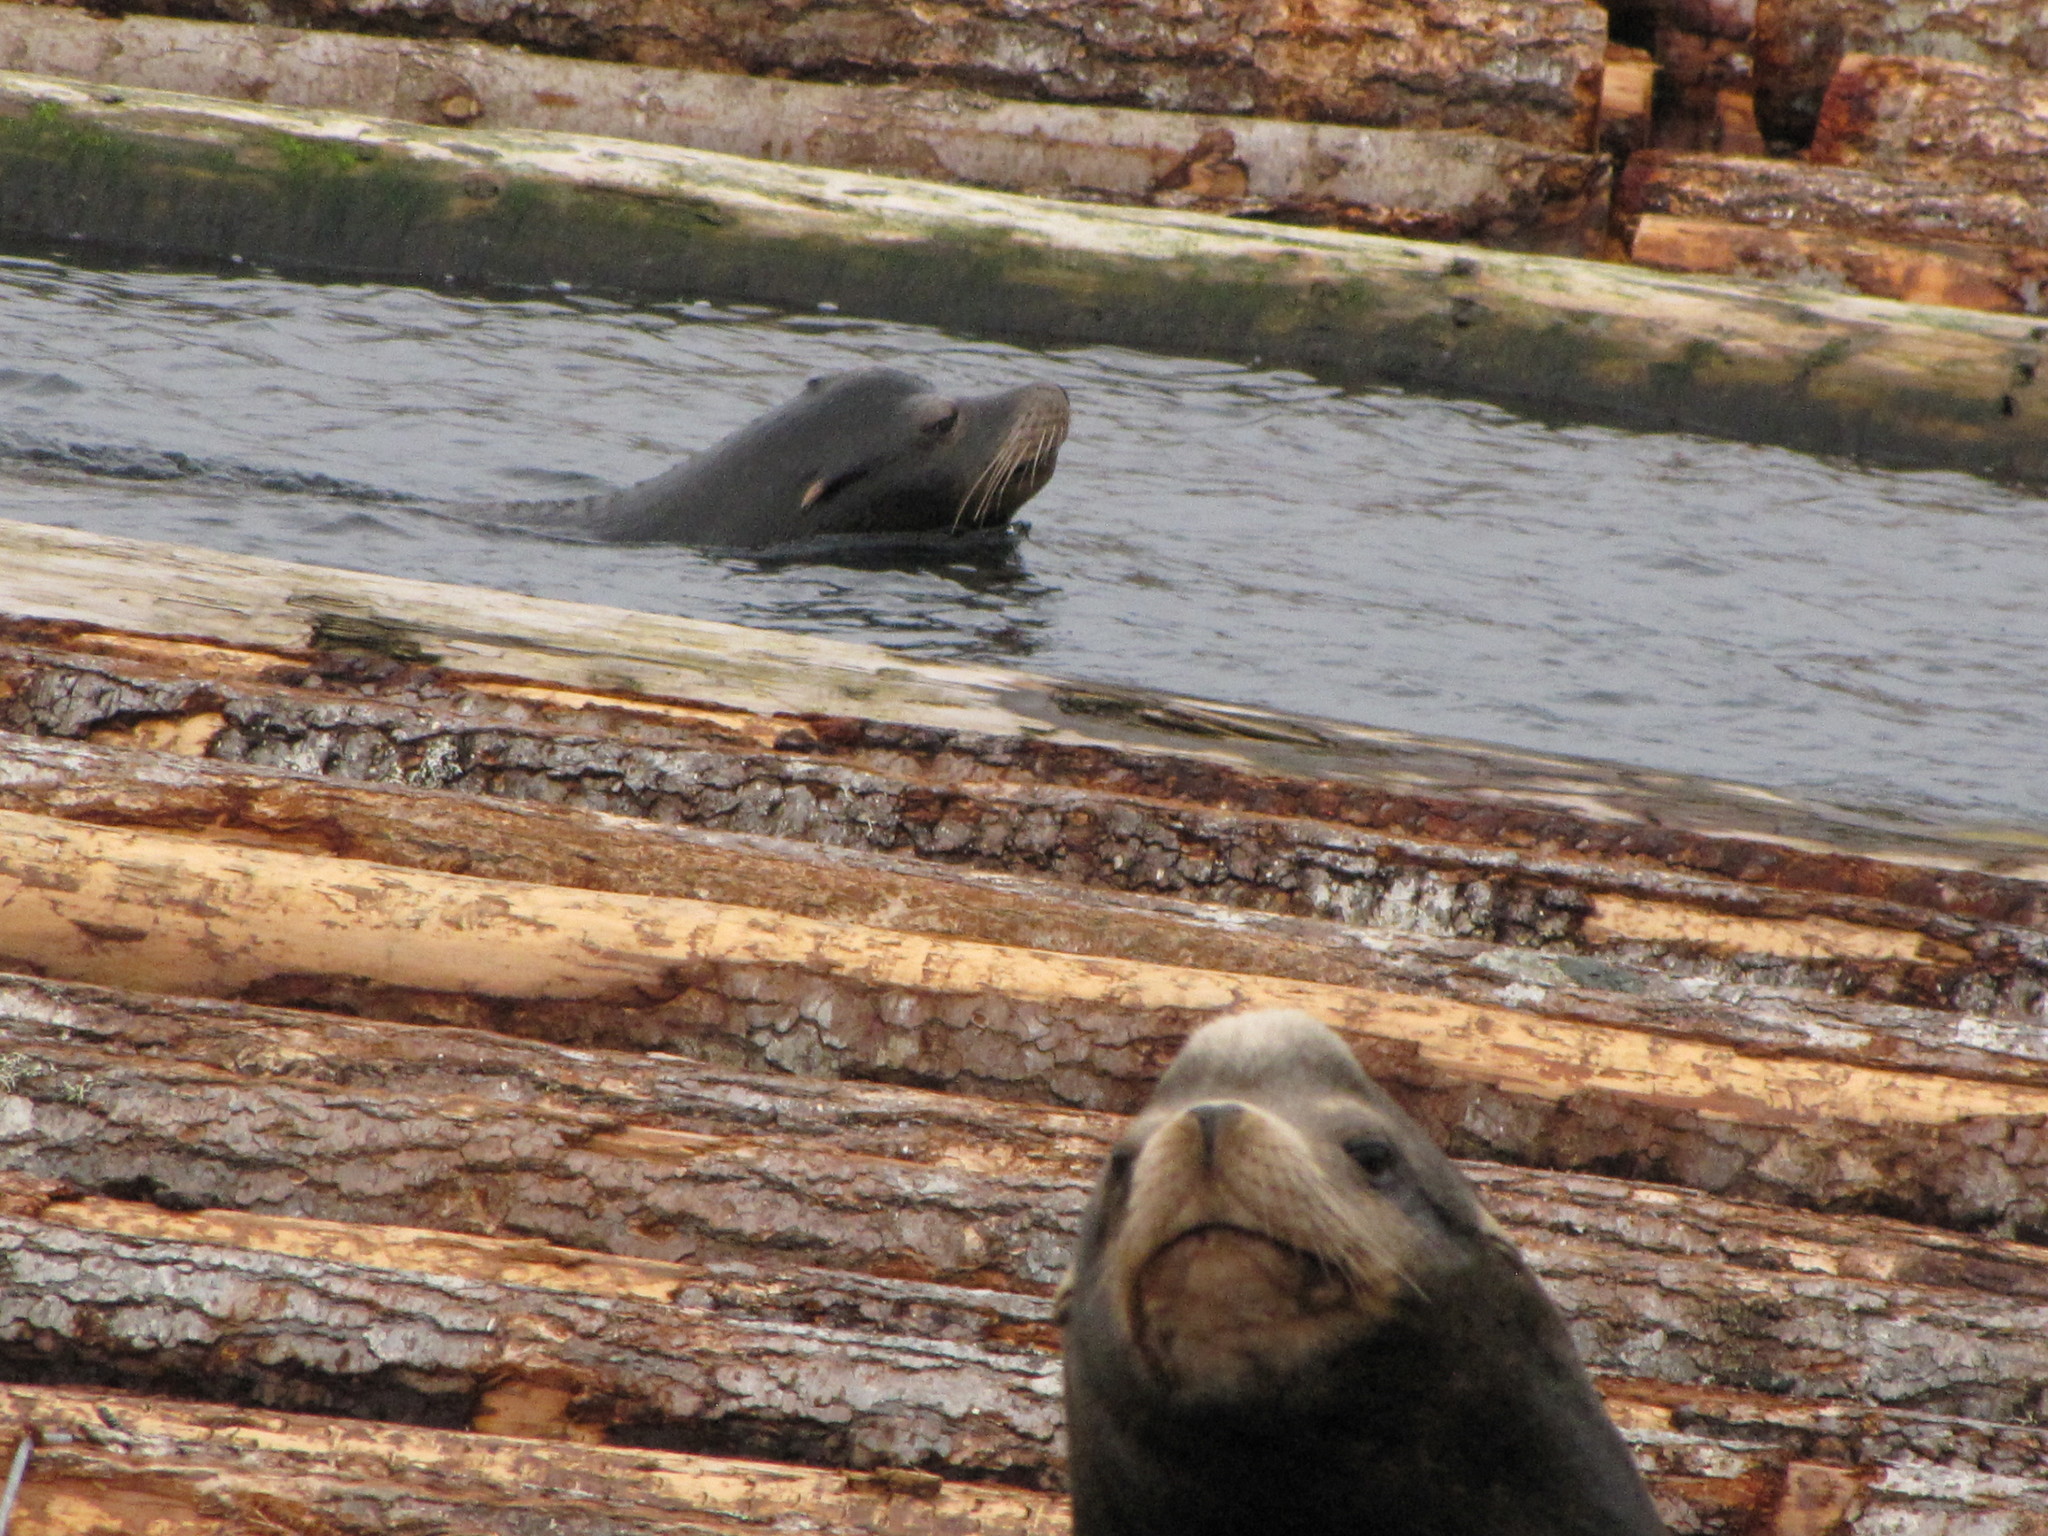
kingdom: Animalia
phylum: Chordata
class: Mammalia
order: Carnivora
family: Otariidae
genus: Zalophus
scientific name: Zalophus californianus
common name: California sea lion
